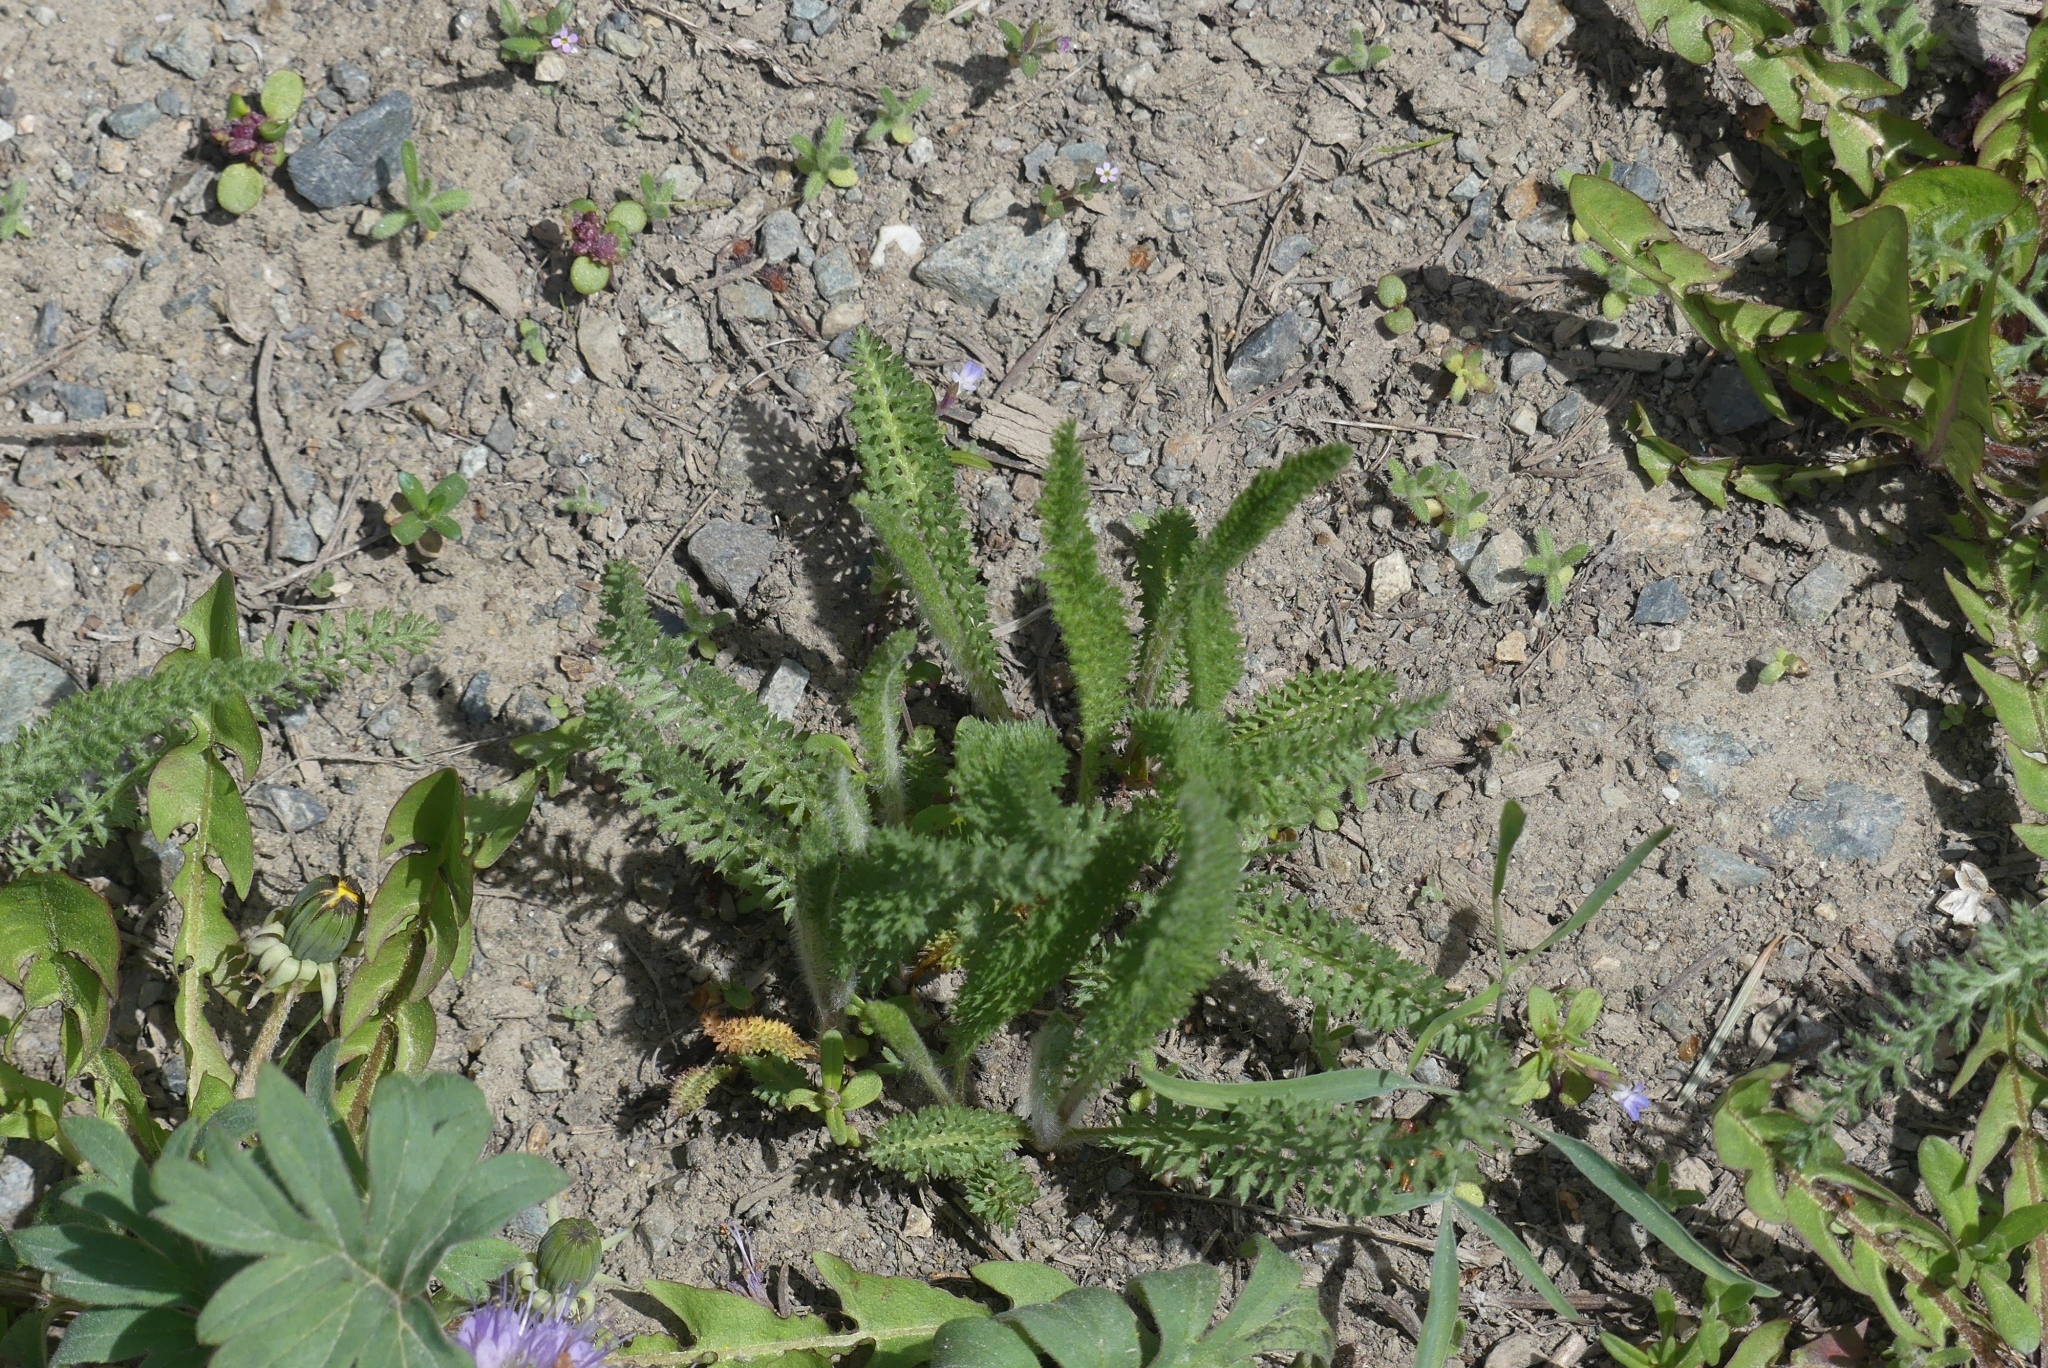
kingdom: Plantae
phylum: Tracheophyta
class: Magnoliopsida
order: Asterales
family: Asteraceae
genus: Achillea
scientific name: Achillea millefolium
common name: Yarrow
